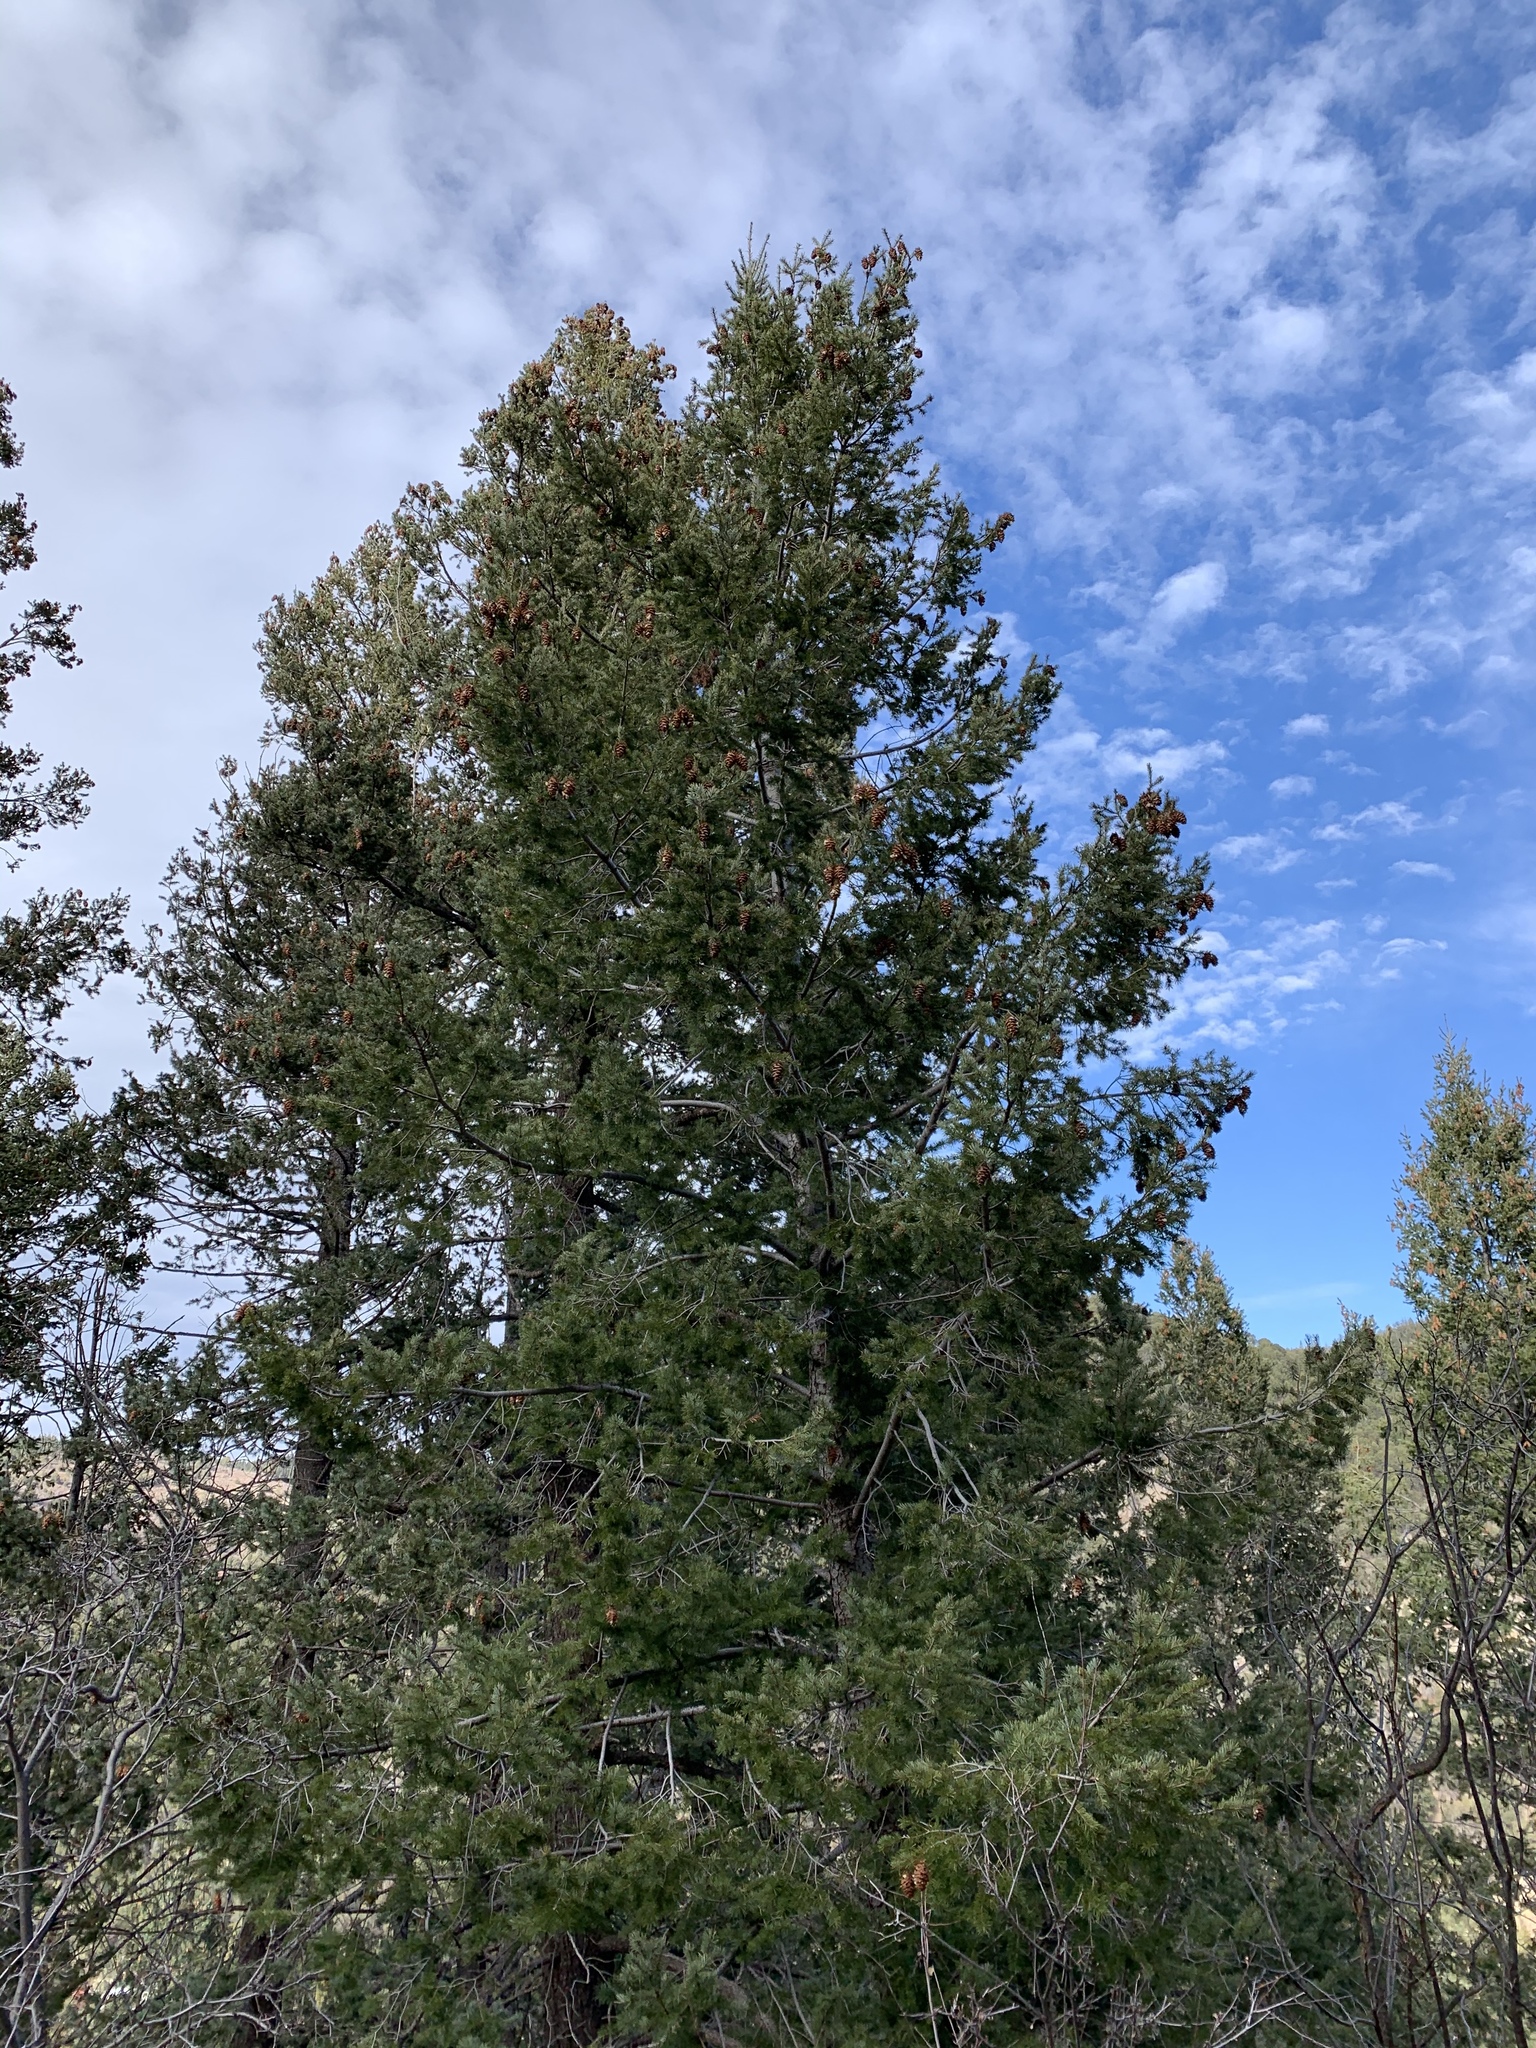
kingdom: Plantae
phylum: Tracheophyta
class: Pinopsida
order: Pinales
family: Pinaceae
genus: Pseudotsuga
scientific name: Pseudotsuga menziesii
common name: Douglas fir
